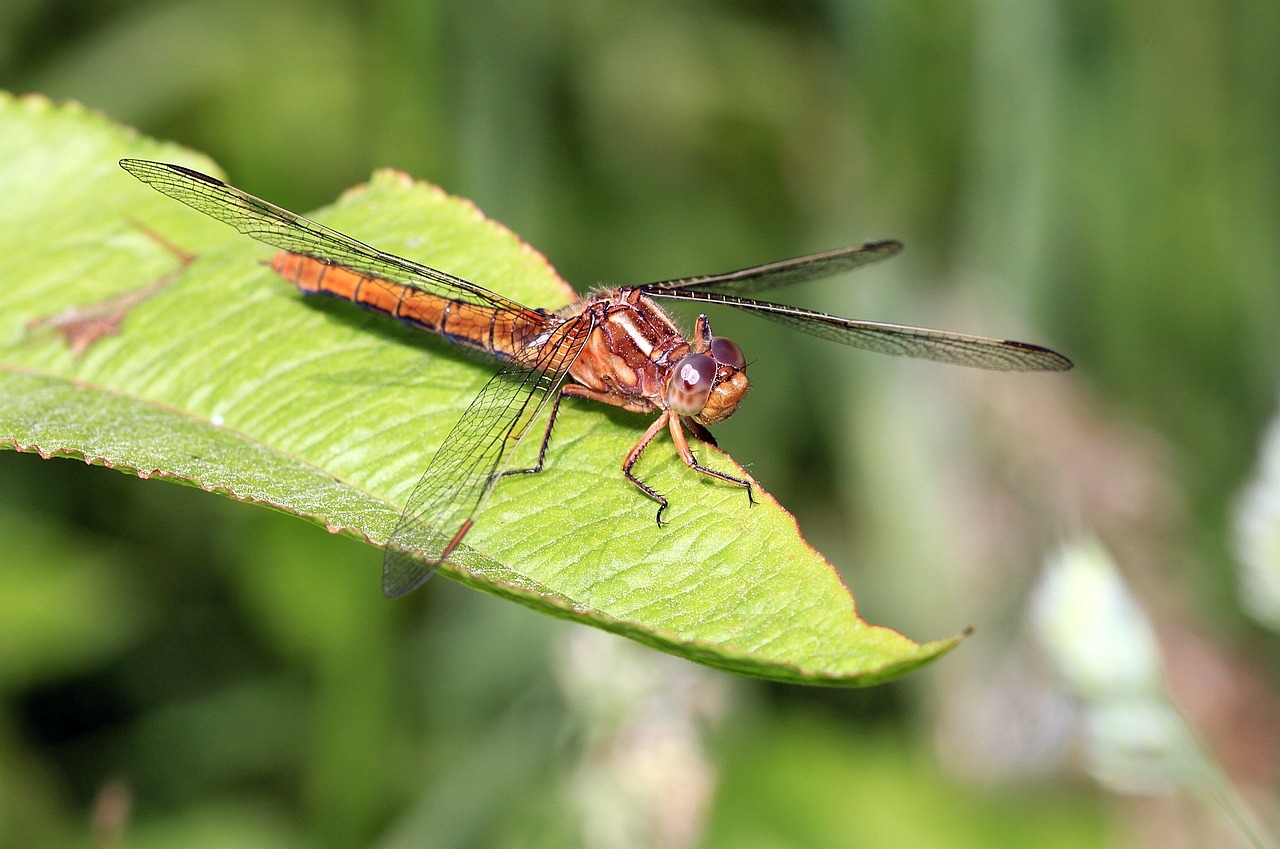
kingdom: Animalia
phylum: Arthropoda
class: Insecta
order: Odonata
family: Libellulidae
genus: Orthetrum
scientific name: Orthetrum coerulescens
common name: Keeled skimmer
